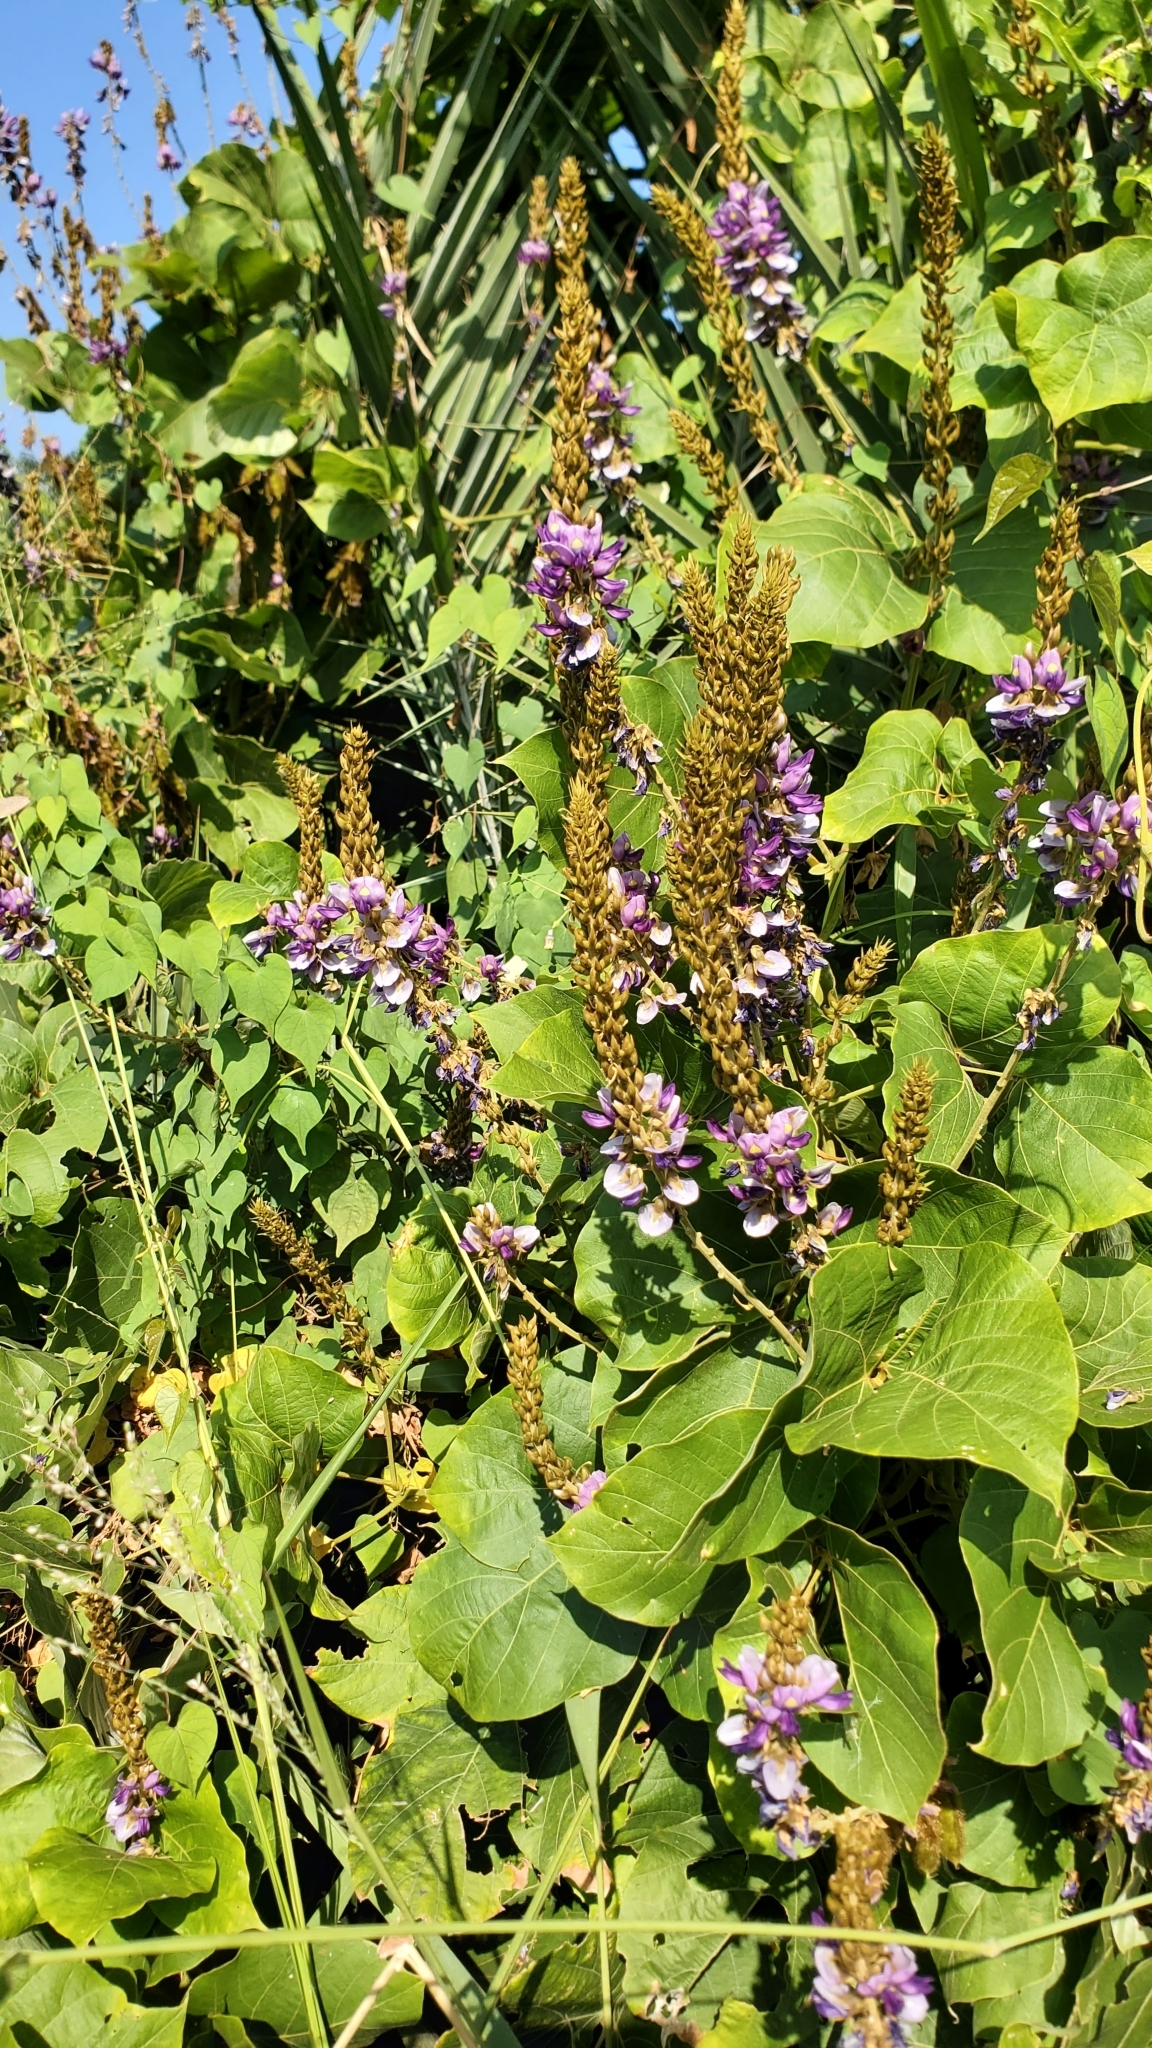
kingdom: Plantae
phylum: Tracheophyta
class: Magnoliopsida
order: Fabales
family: Fabaceae
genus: Pueraria
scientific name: Pueraria montana
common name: Kudzu
